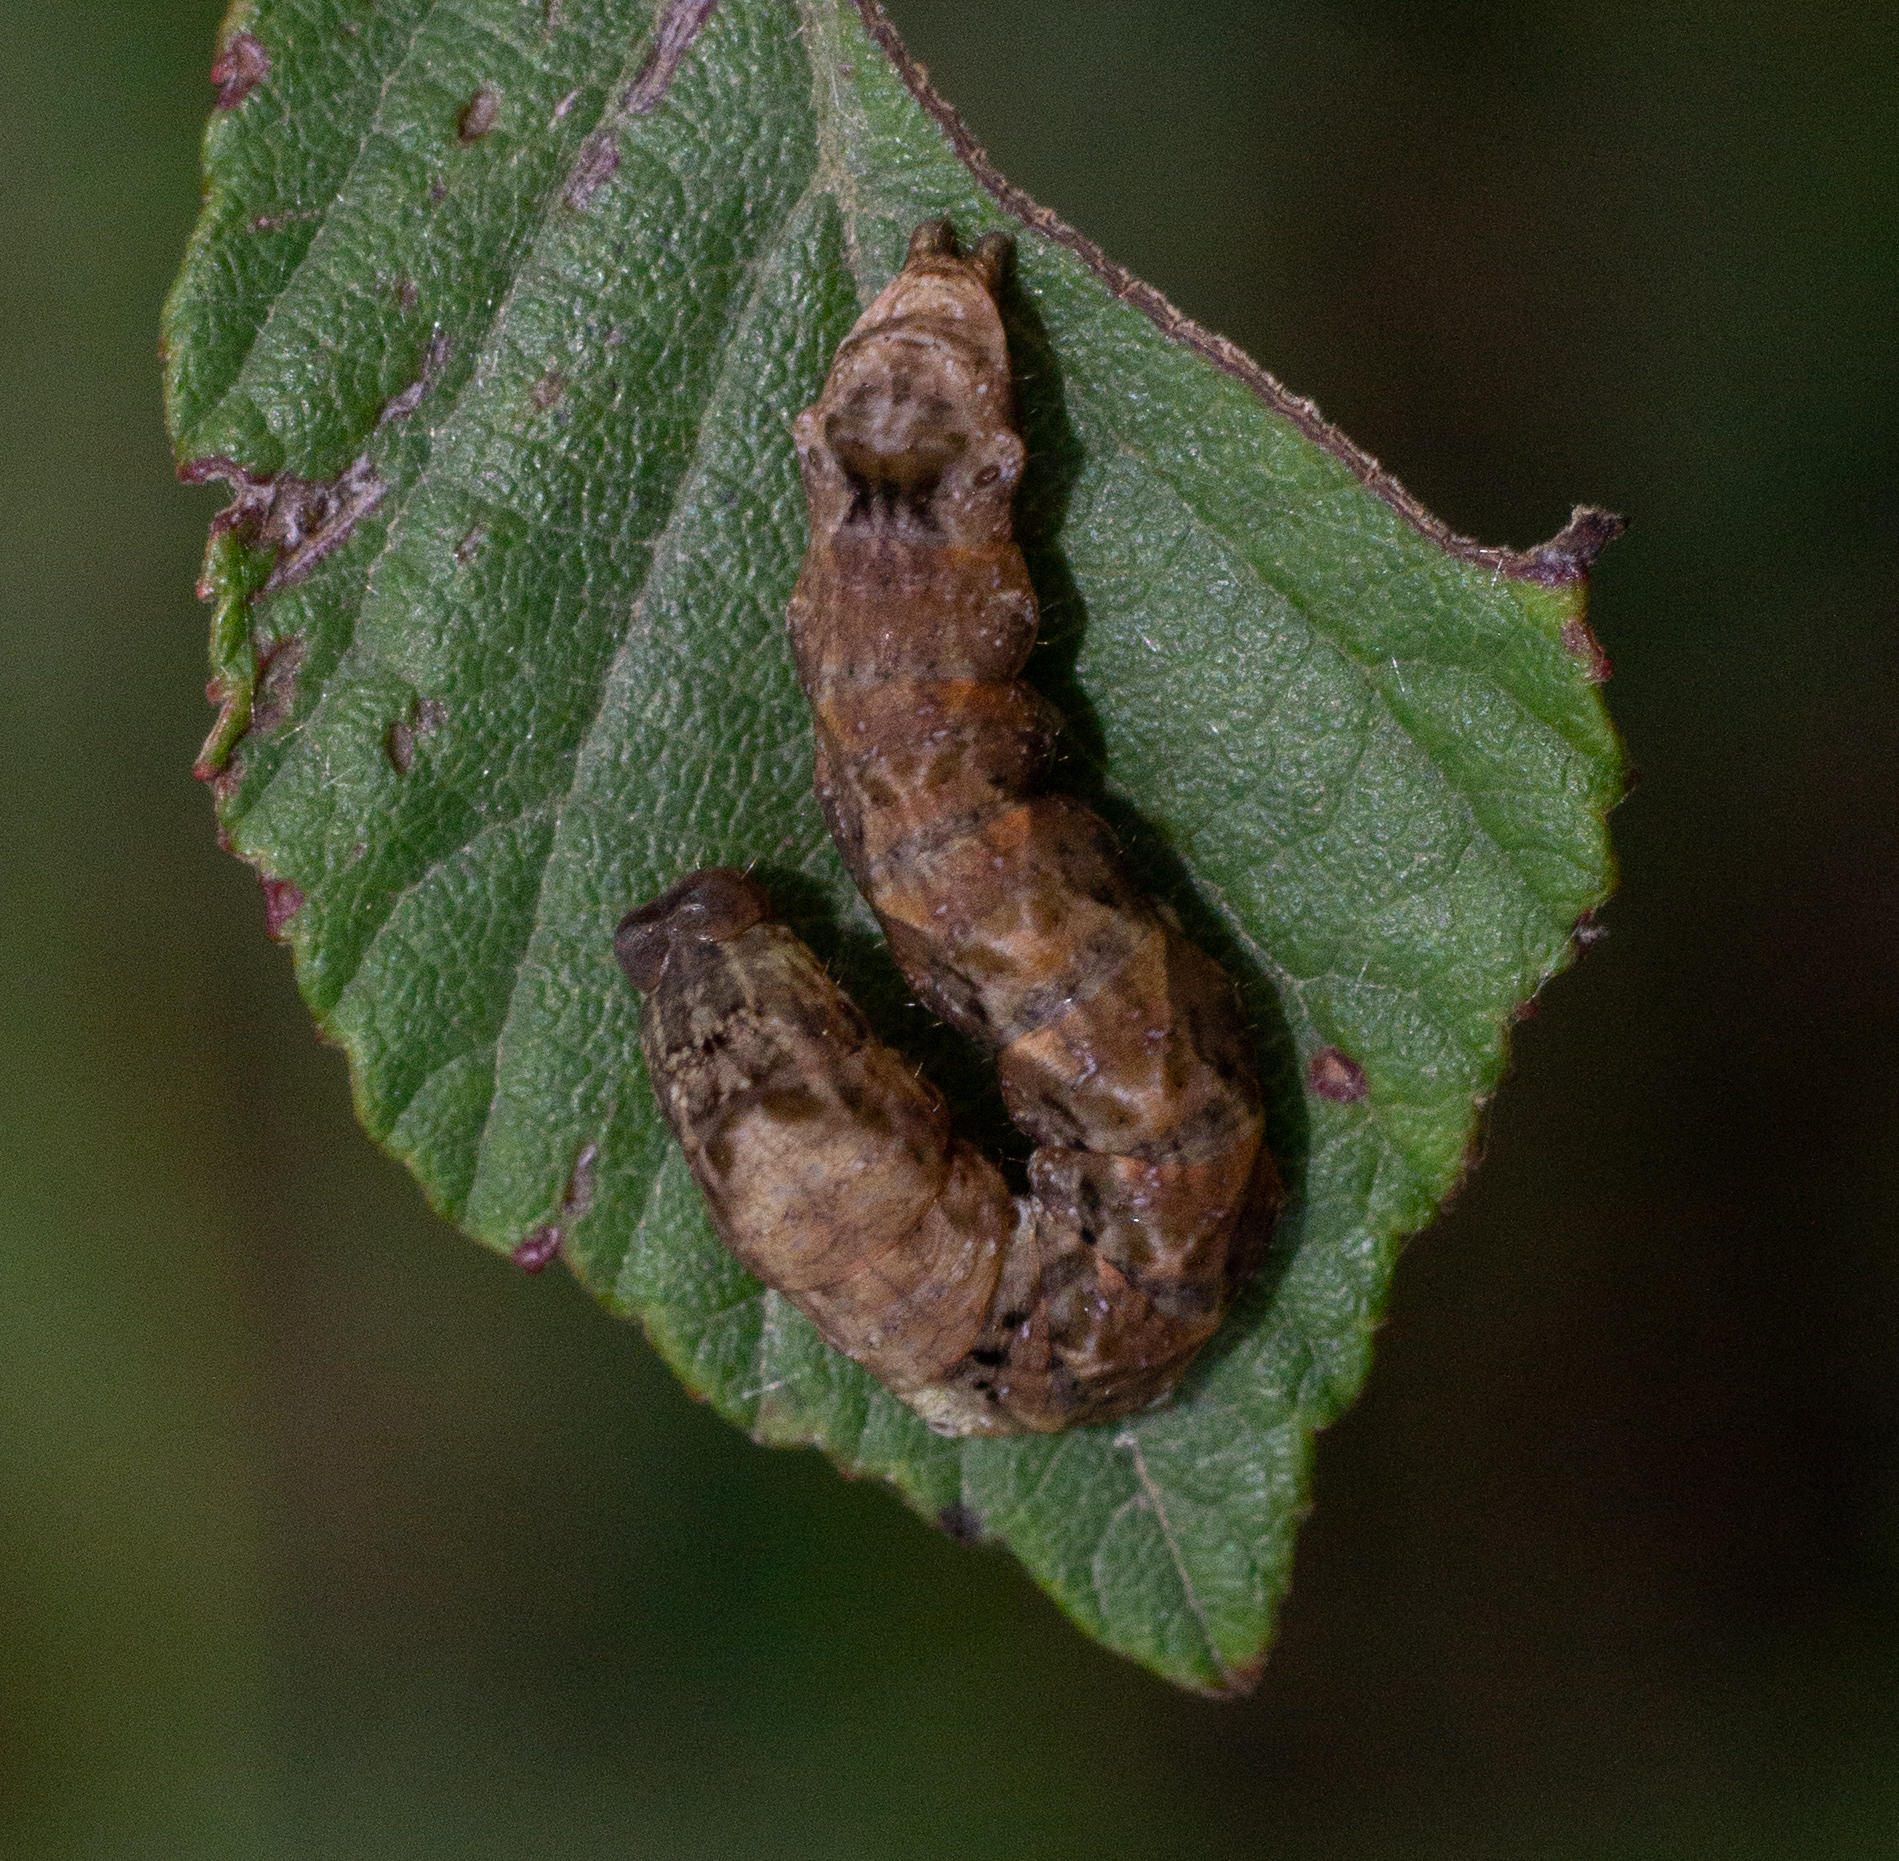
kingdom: Animalia
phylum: Arthropoda
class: Insecta
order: Lepidoptera
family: Drepanidae
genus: Thyatira
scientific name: Thyatira batis
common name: Peach blossom
